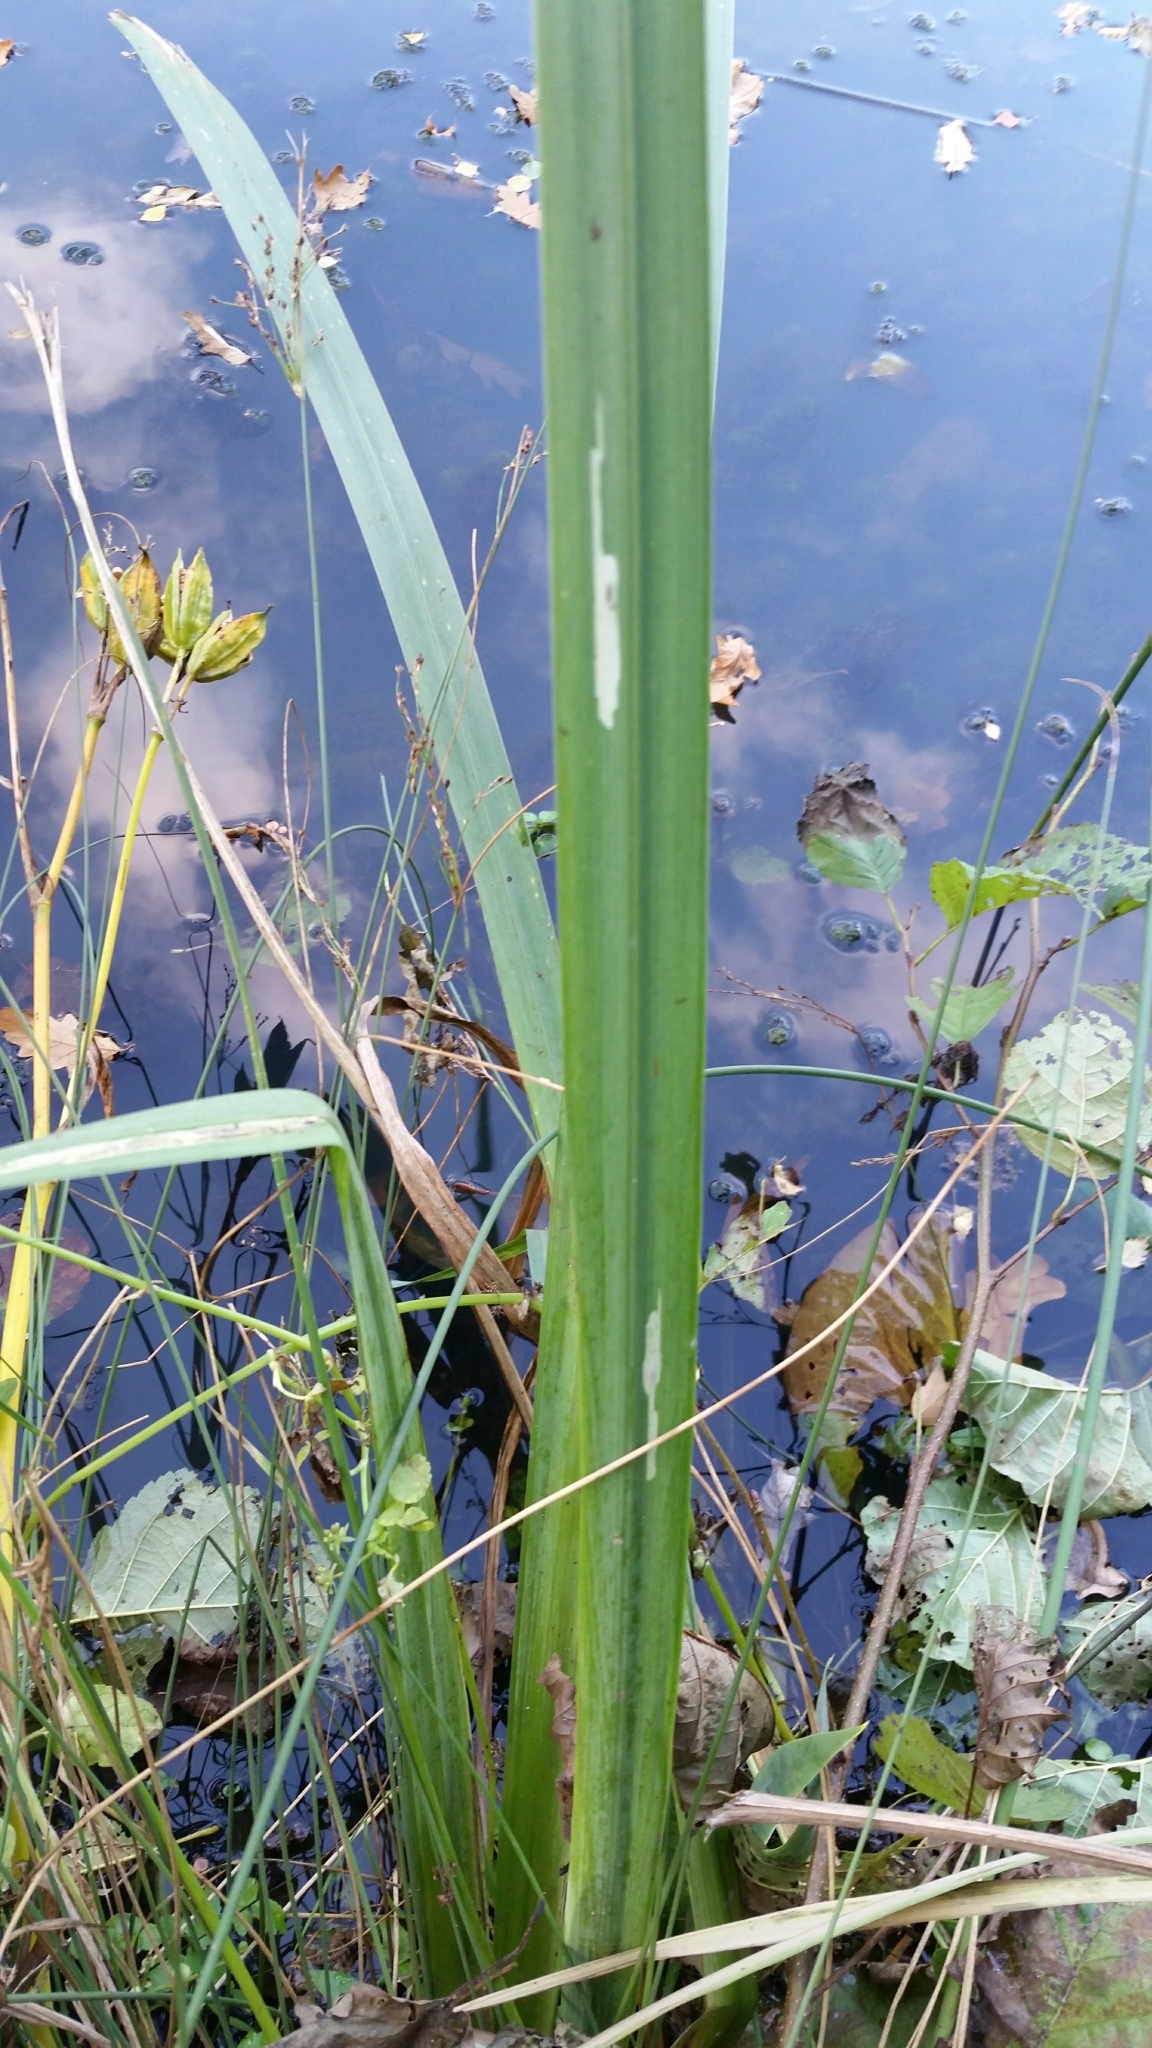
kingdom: Animalia
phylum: Arthropoda
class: Insecta
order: Diptera
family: Agromyzidae
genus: Cerodontha
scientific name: Cerodontha ircos
